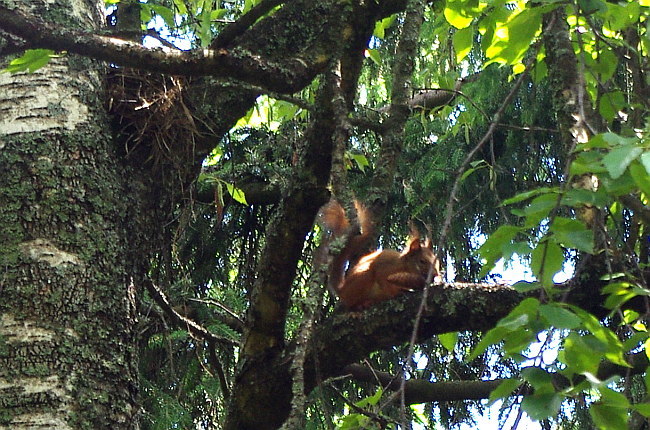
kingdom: Animalia
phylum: Chordata
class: Mammalia
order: Rodentia
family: Sciuridae
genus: Sciurus
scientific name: Sciurus vulgaris
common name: Eurasian red squirrel
